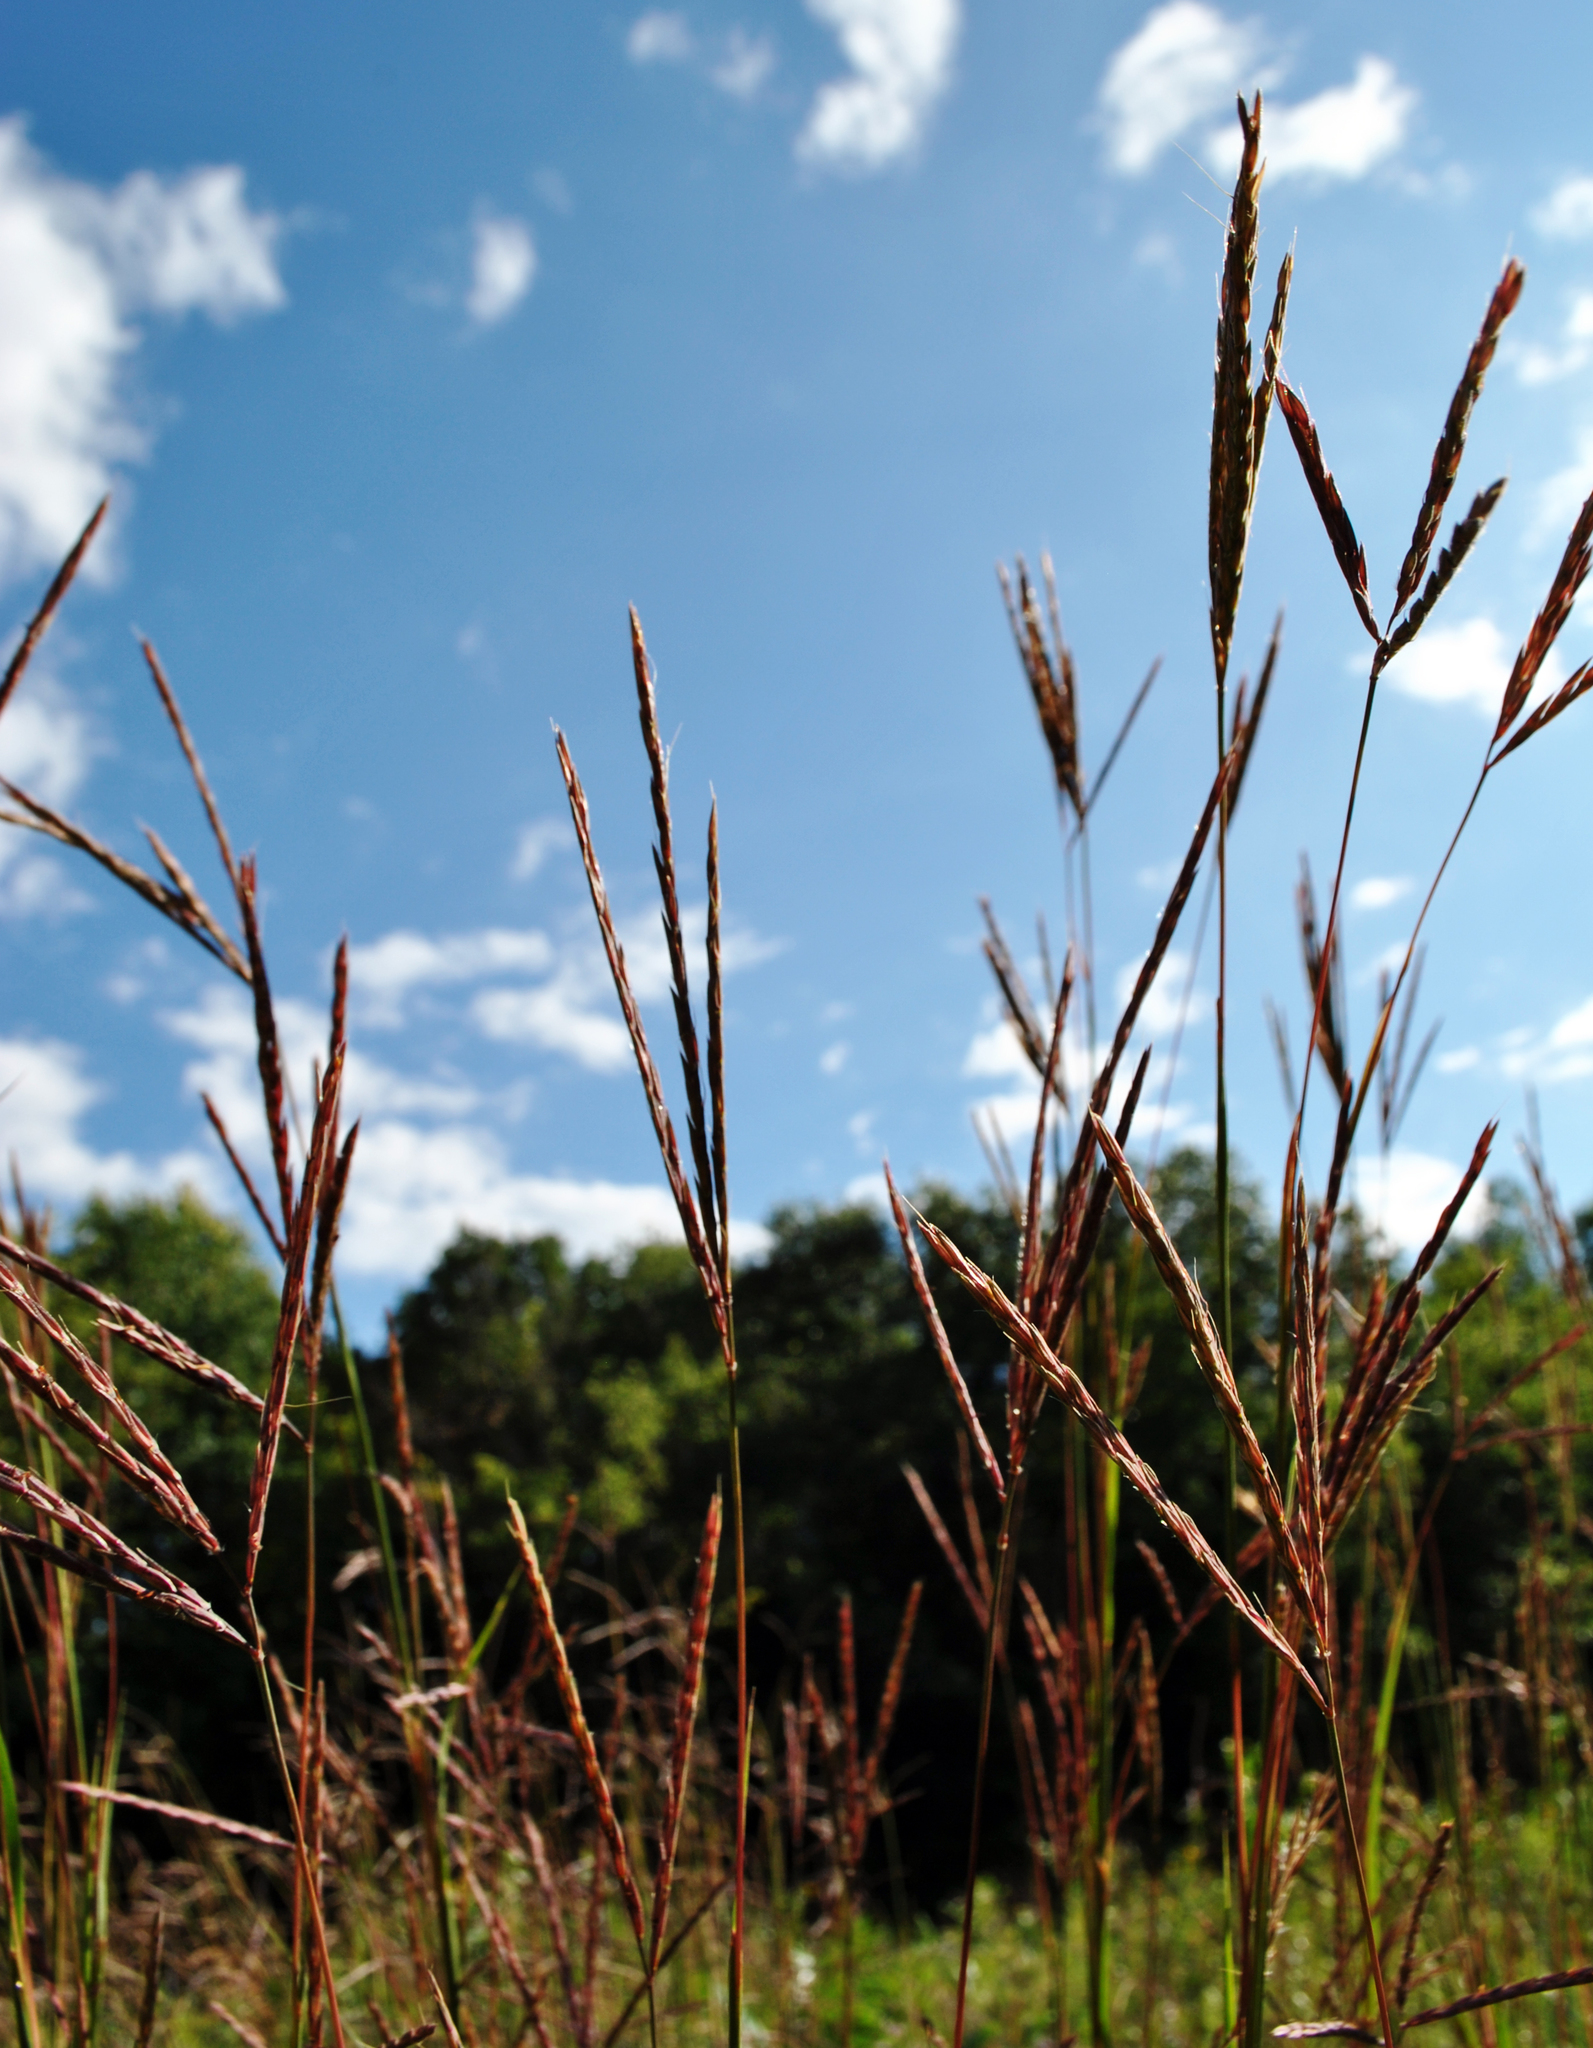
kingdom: Plantae
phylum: Tracheophyta
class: Liliopsida
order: Poales
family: Poaceae
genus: Andropogon
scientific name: Andropogon gerardi
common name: Big bluestem
